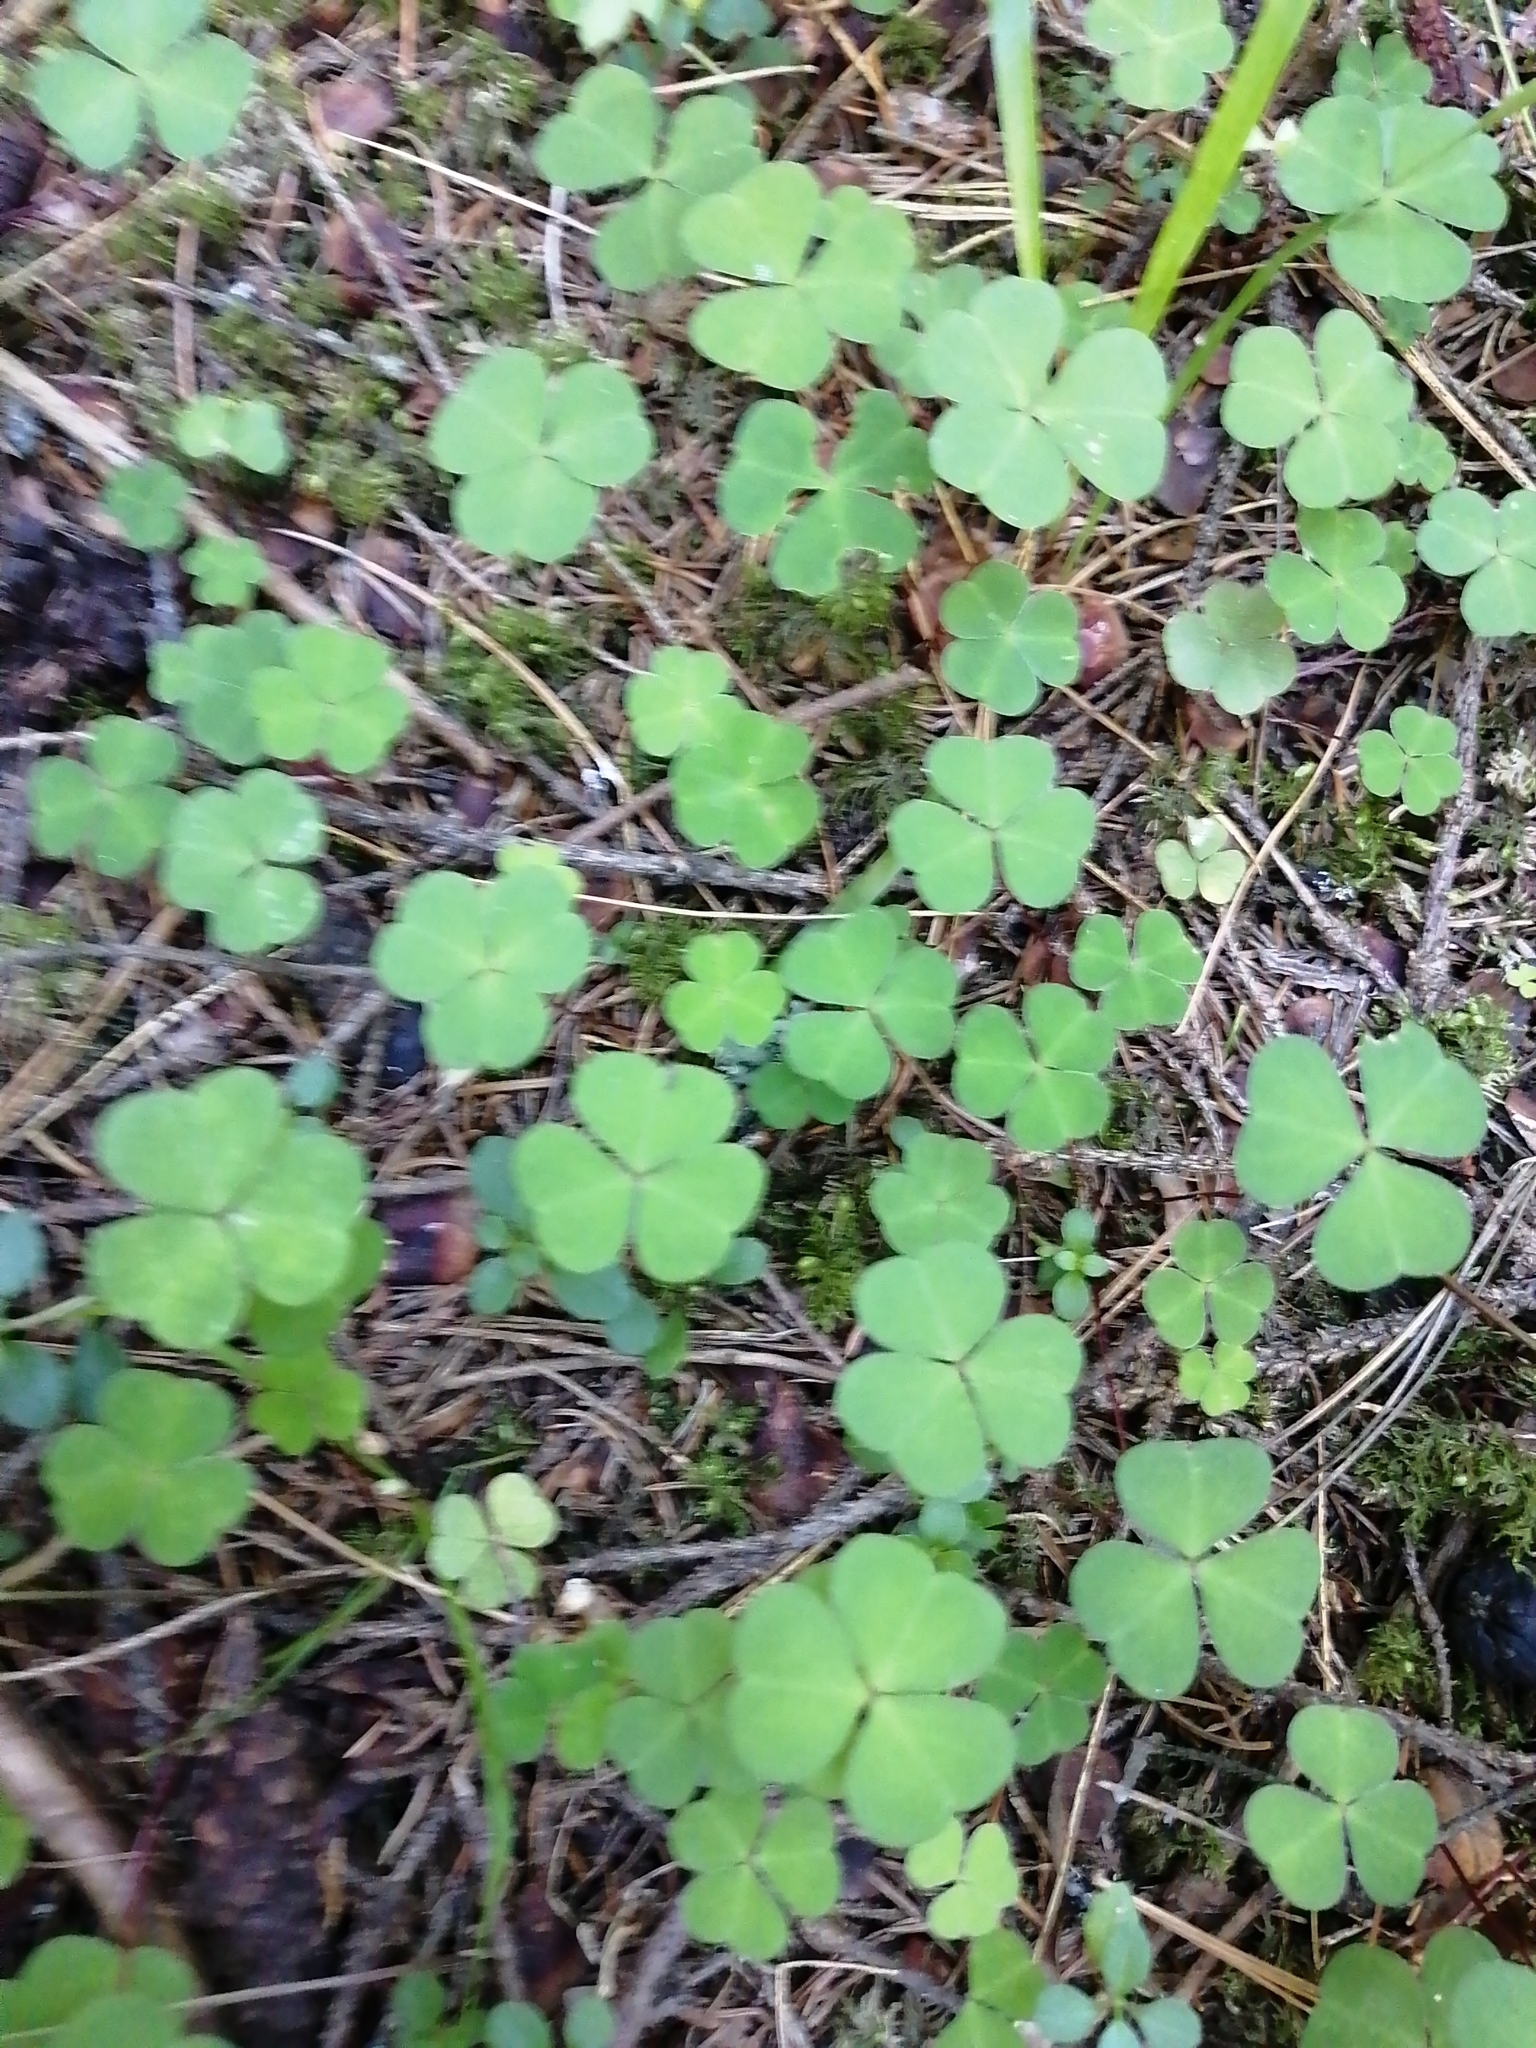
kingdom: Plantae
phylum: Tracheophyta
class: Magnoliopsida
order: Oxalidales
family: Oxalidaceae
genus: Oxalis
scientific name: Oxalis acetosella
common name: Wood-sorrel
